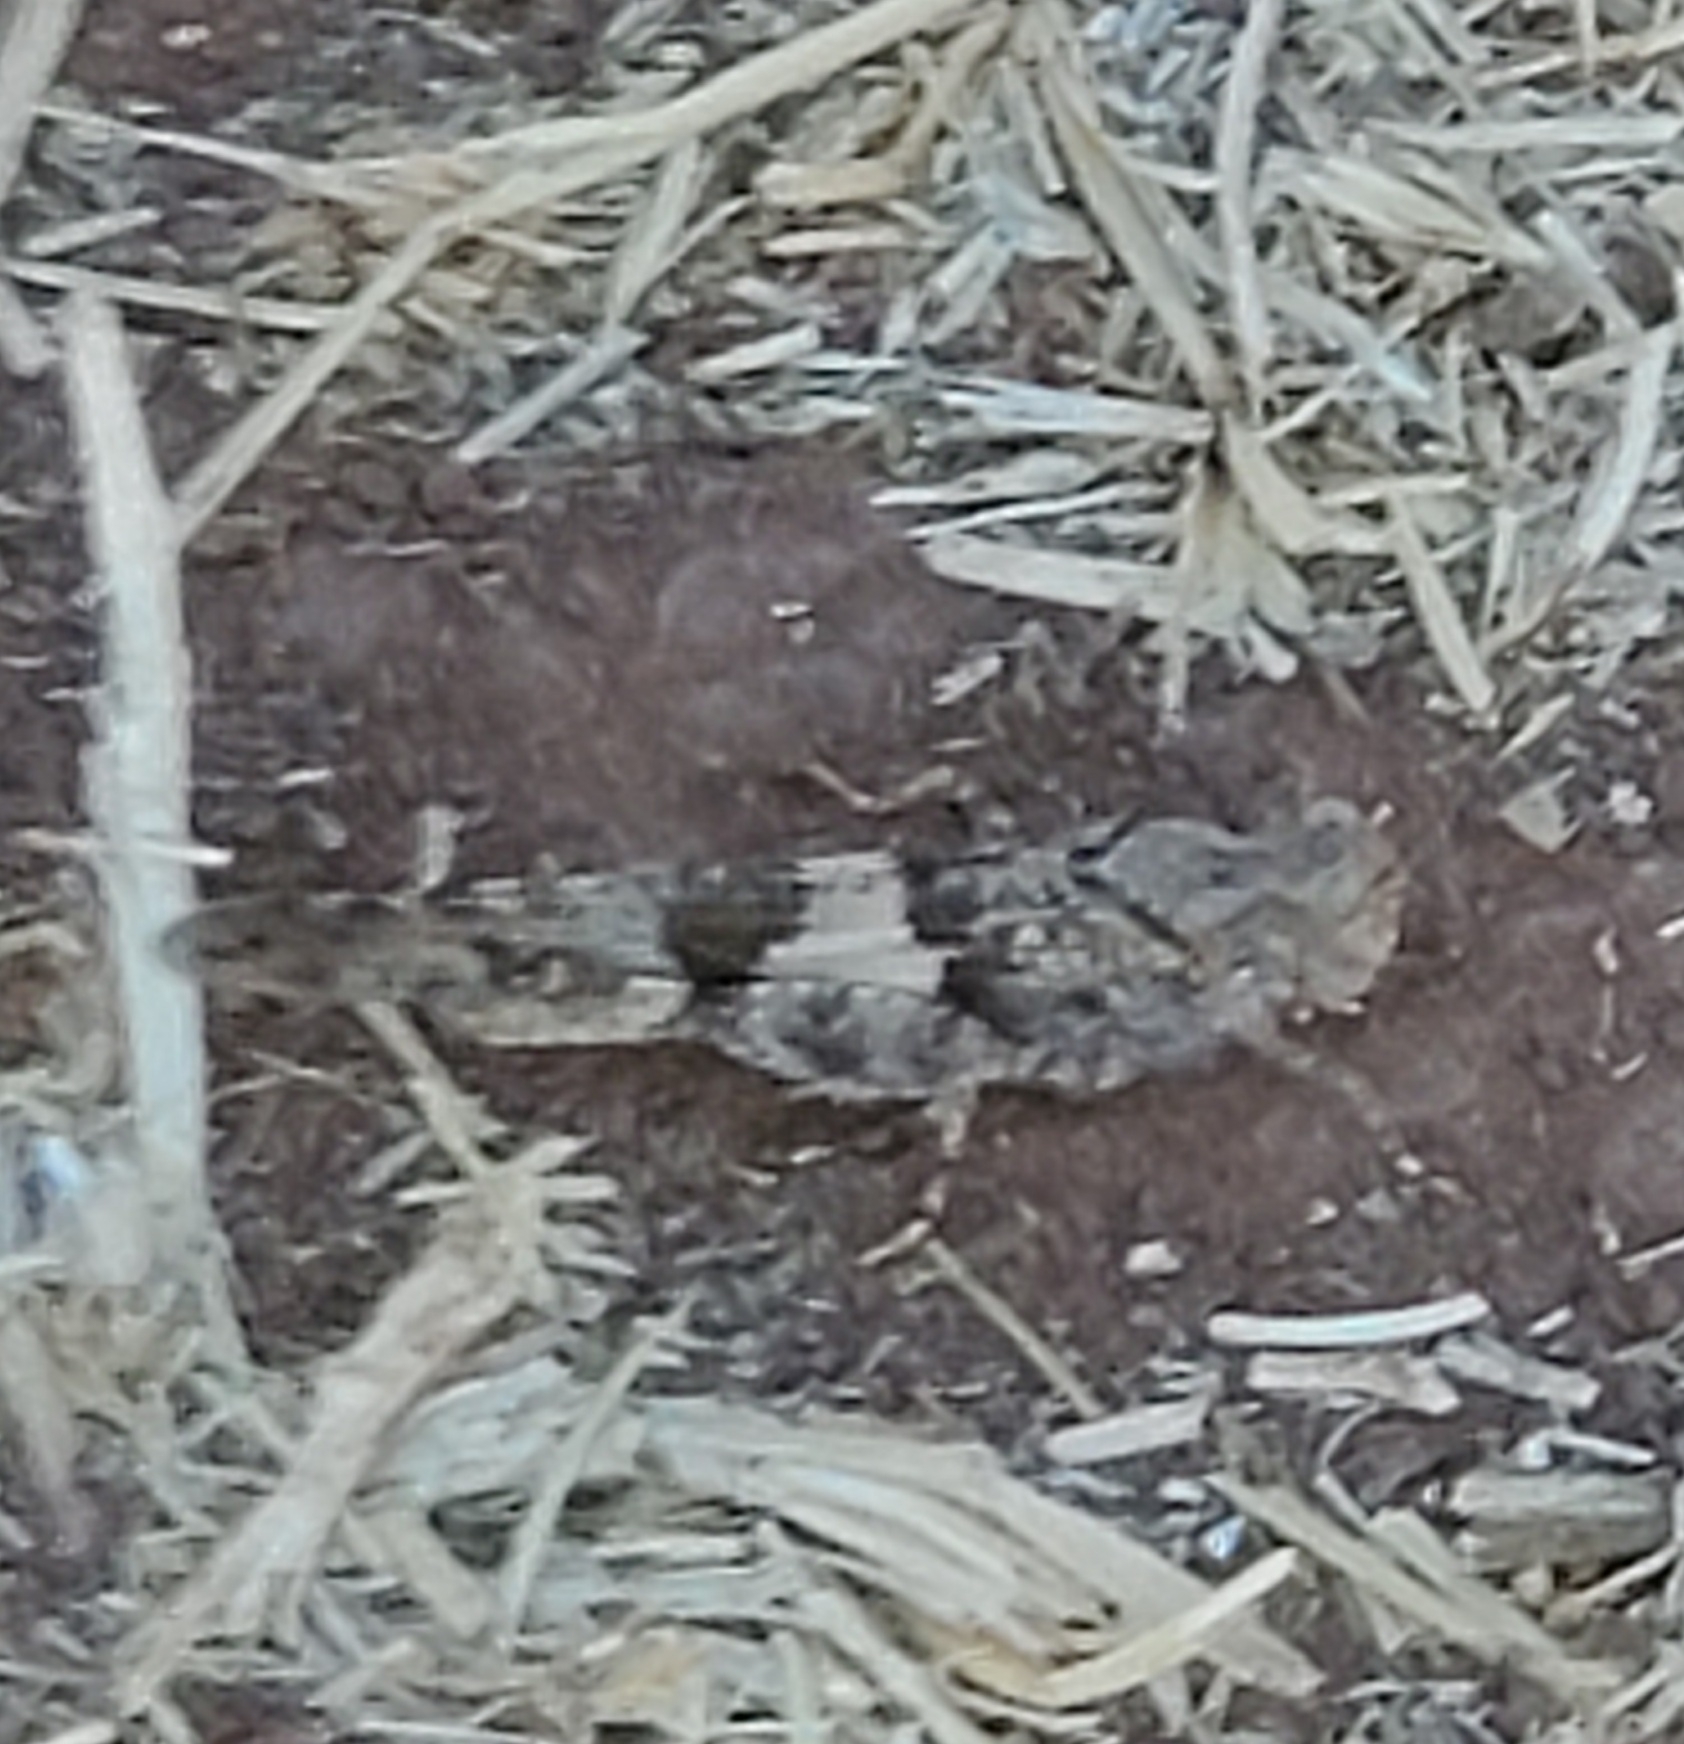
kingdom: Animalia
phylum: Arthropoda
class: Insecta
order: Orthoptera
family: Acrididae
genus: Trimerotropis
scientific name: Trimerotropis pallidipennis
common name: Pallid-winged grasshopper
